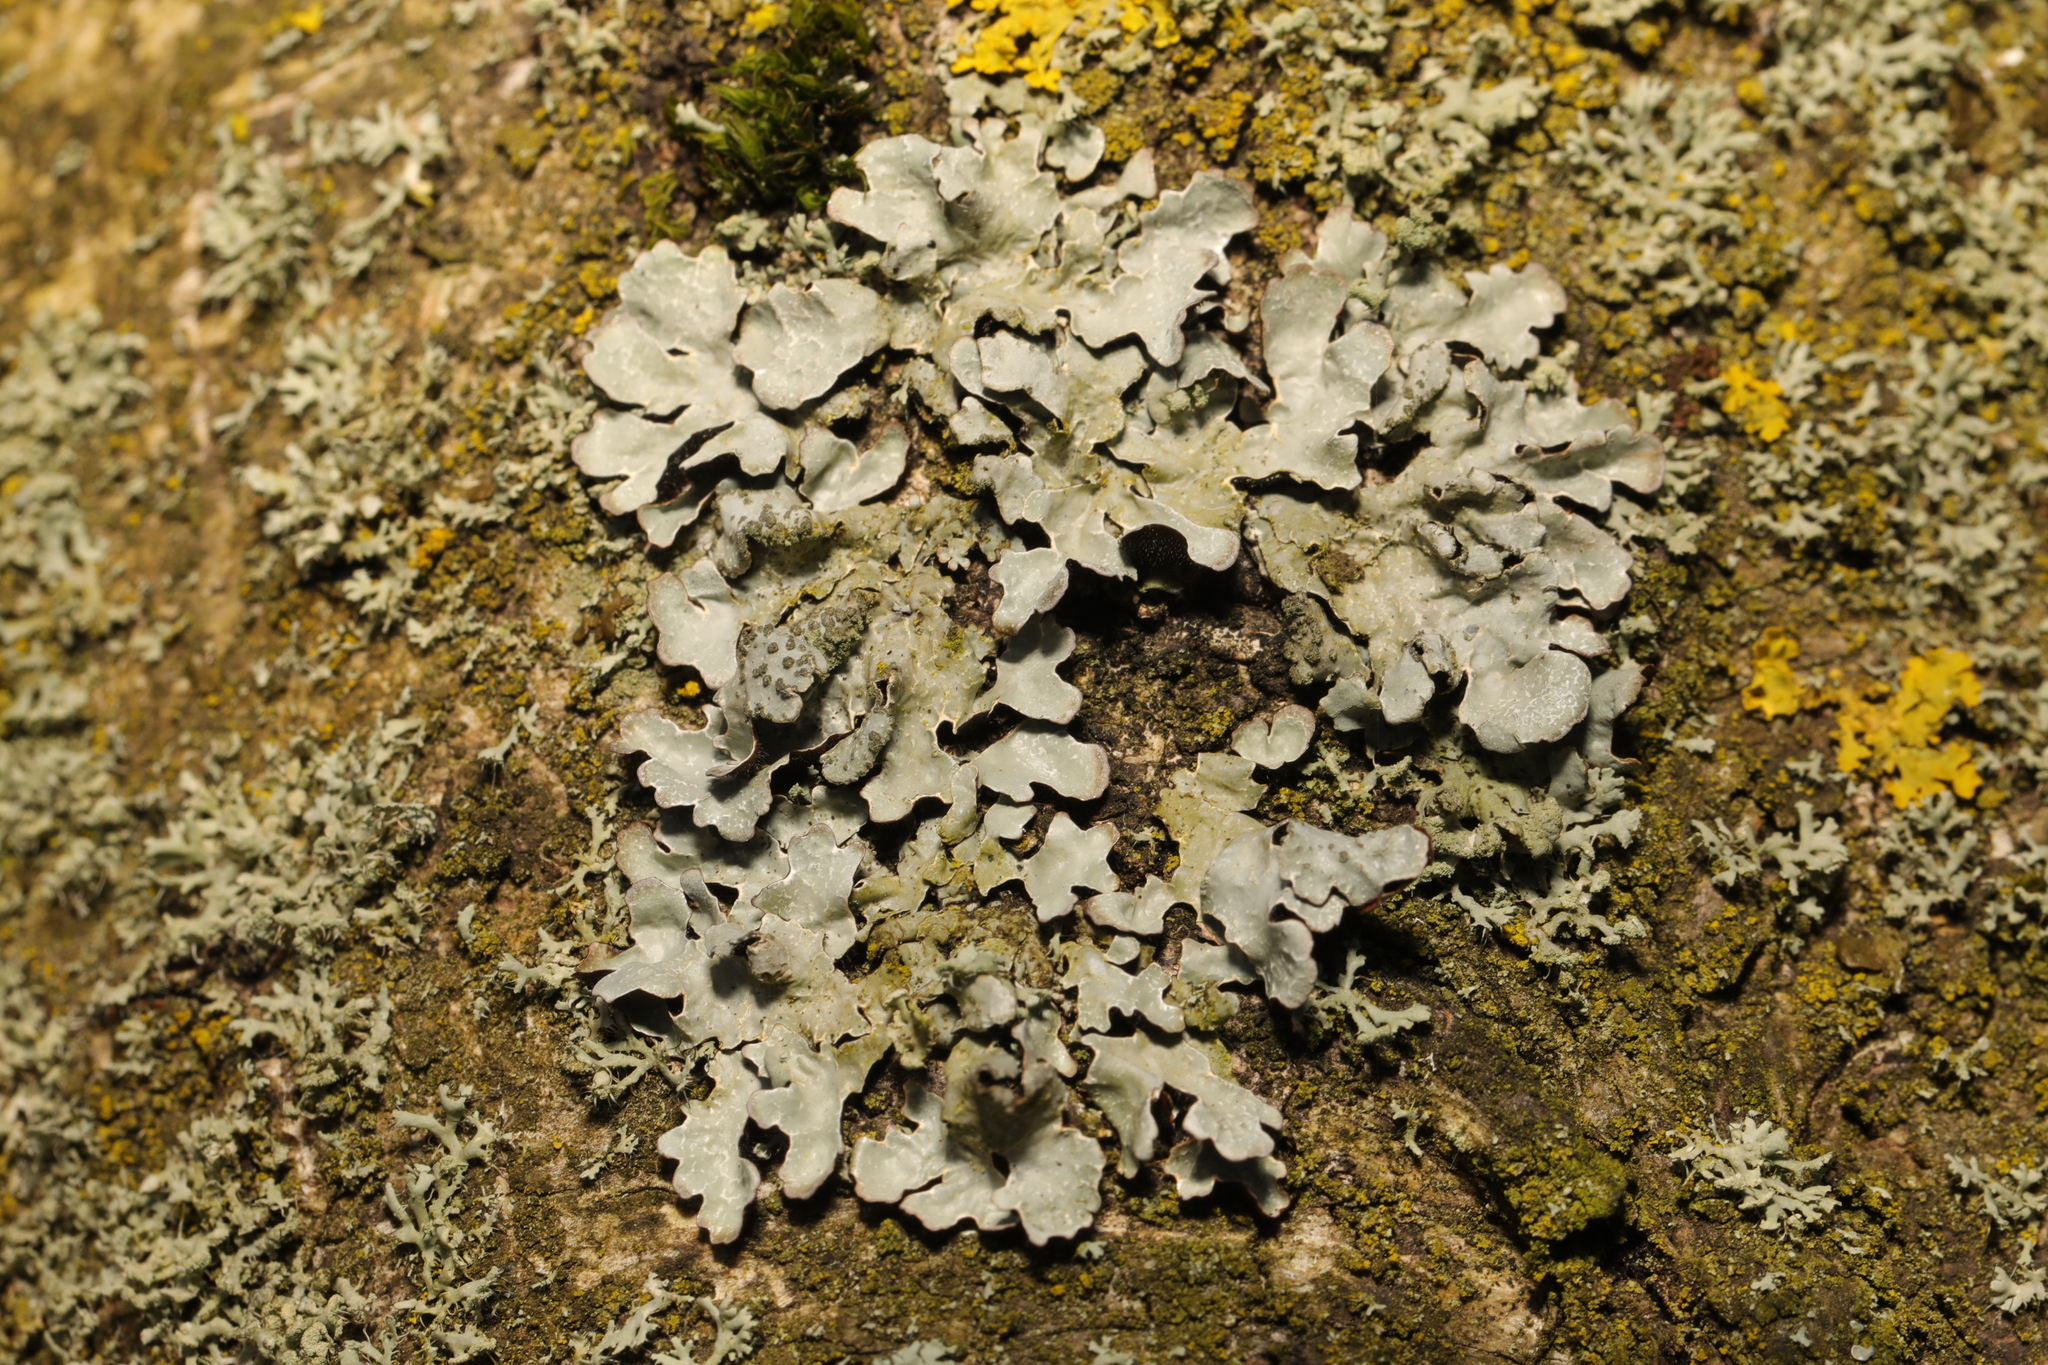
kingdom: Fungi
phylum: Ascomycota
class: Lecanoromycetes
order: Lecanorales
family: Parmeliaceae
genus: Parmelia
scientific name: Parmelia sulcata
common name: Netted shield lichen
